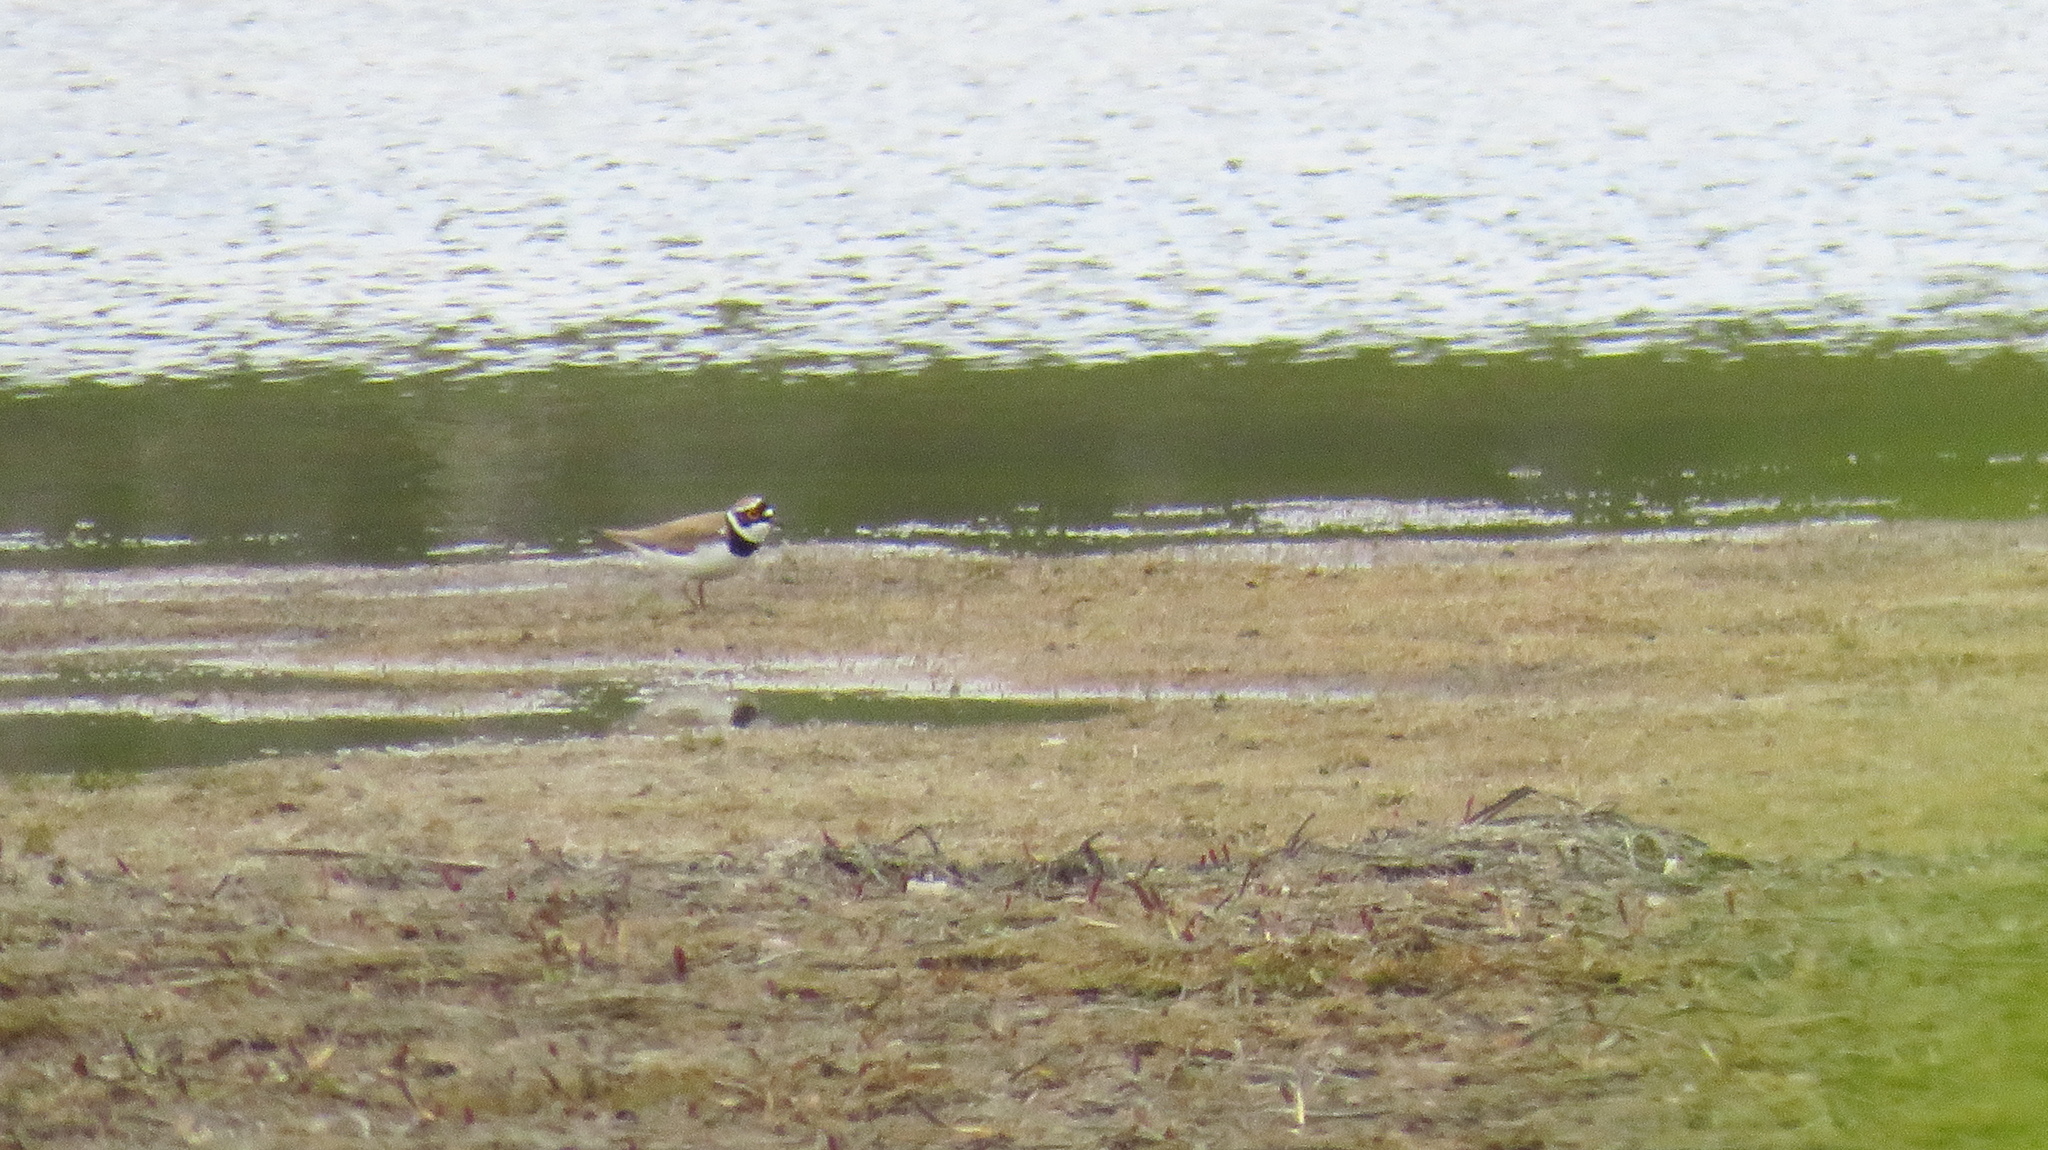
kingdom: Animalia
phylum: Chordata
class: Aves
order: Charadriiformes
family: Charadriidae
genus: Charadrius
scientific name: Charadrius dubius
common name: Little ringed plover
